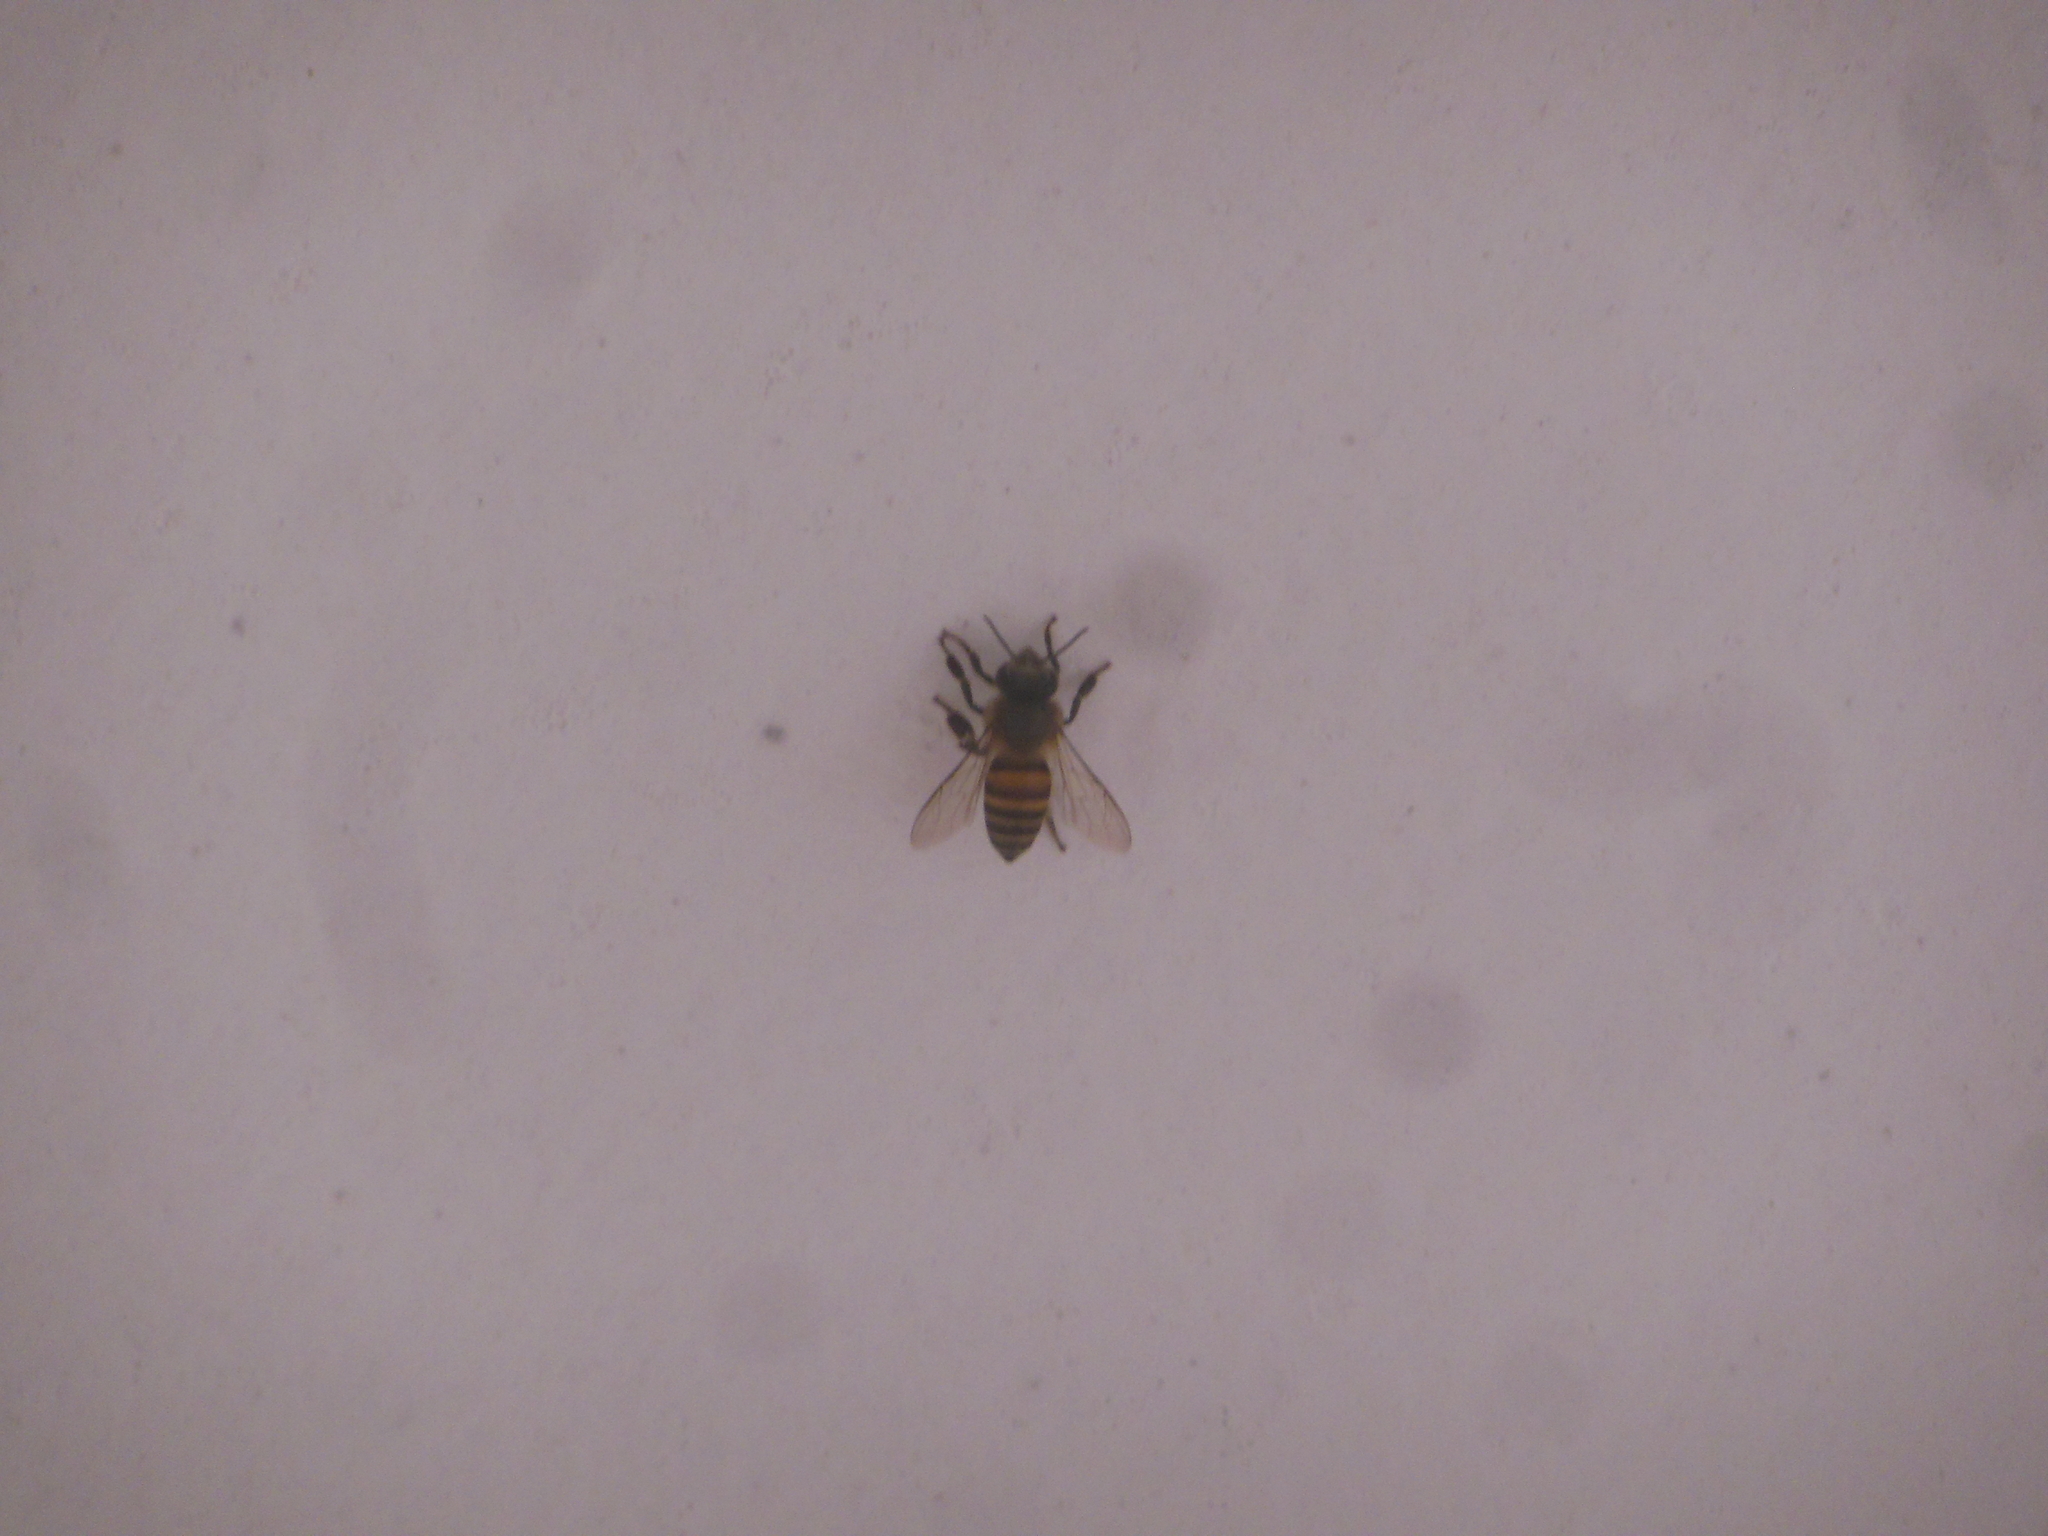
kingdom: Animalia
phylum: Arthropoda
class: Insecta
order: Hymenoptera
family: Apidae
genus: Apis
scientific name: Apis cerana
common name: Honey bee
